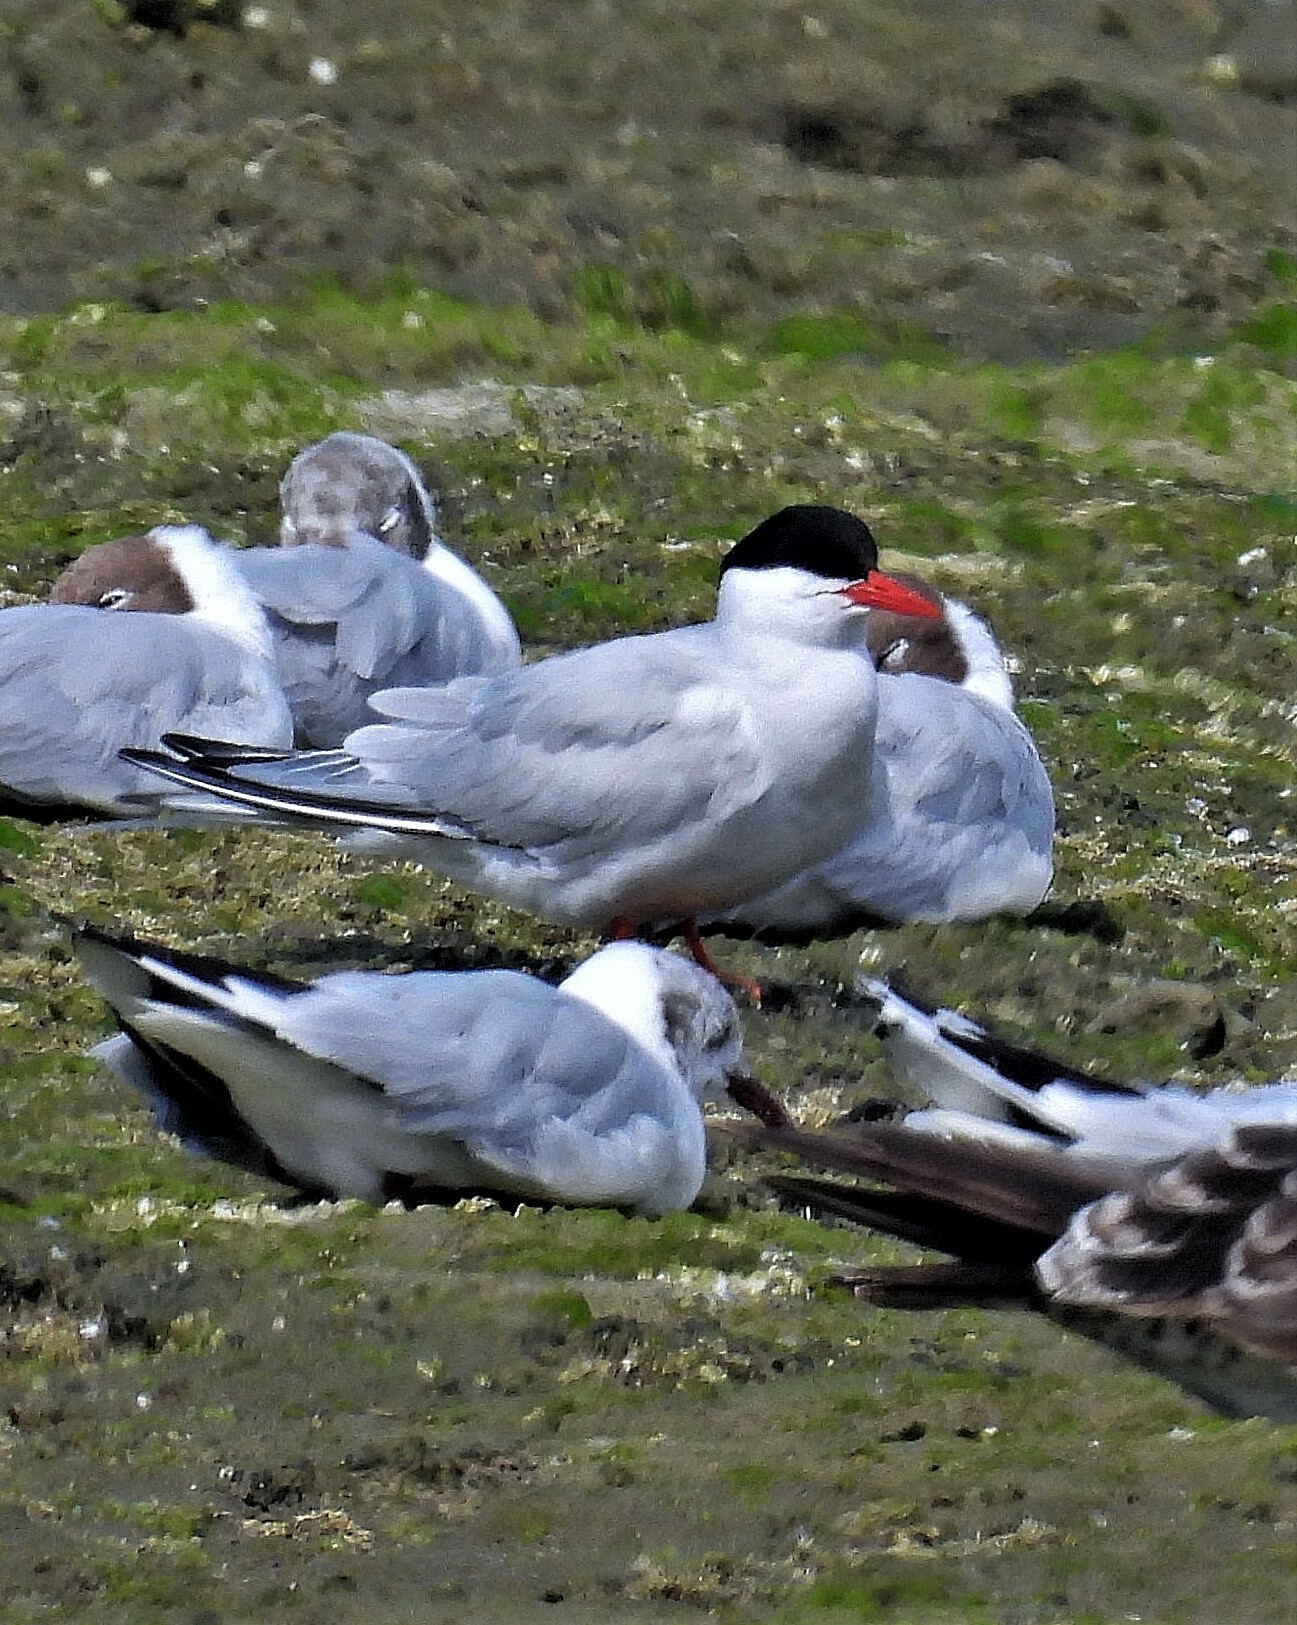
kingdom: Animalia
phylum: Chordata
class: Aves
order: Charadriiformes
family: Laridae
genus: Sterna
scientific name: Sterna hirundinacea
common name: South american tern
